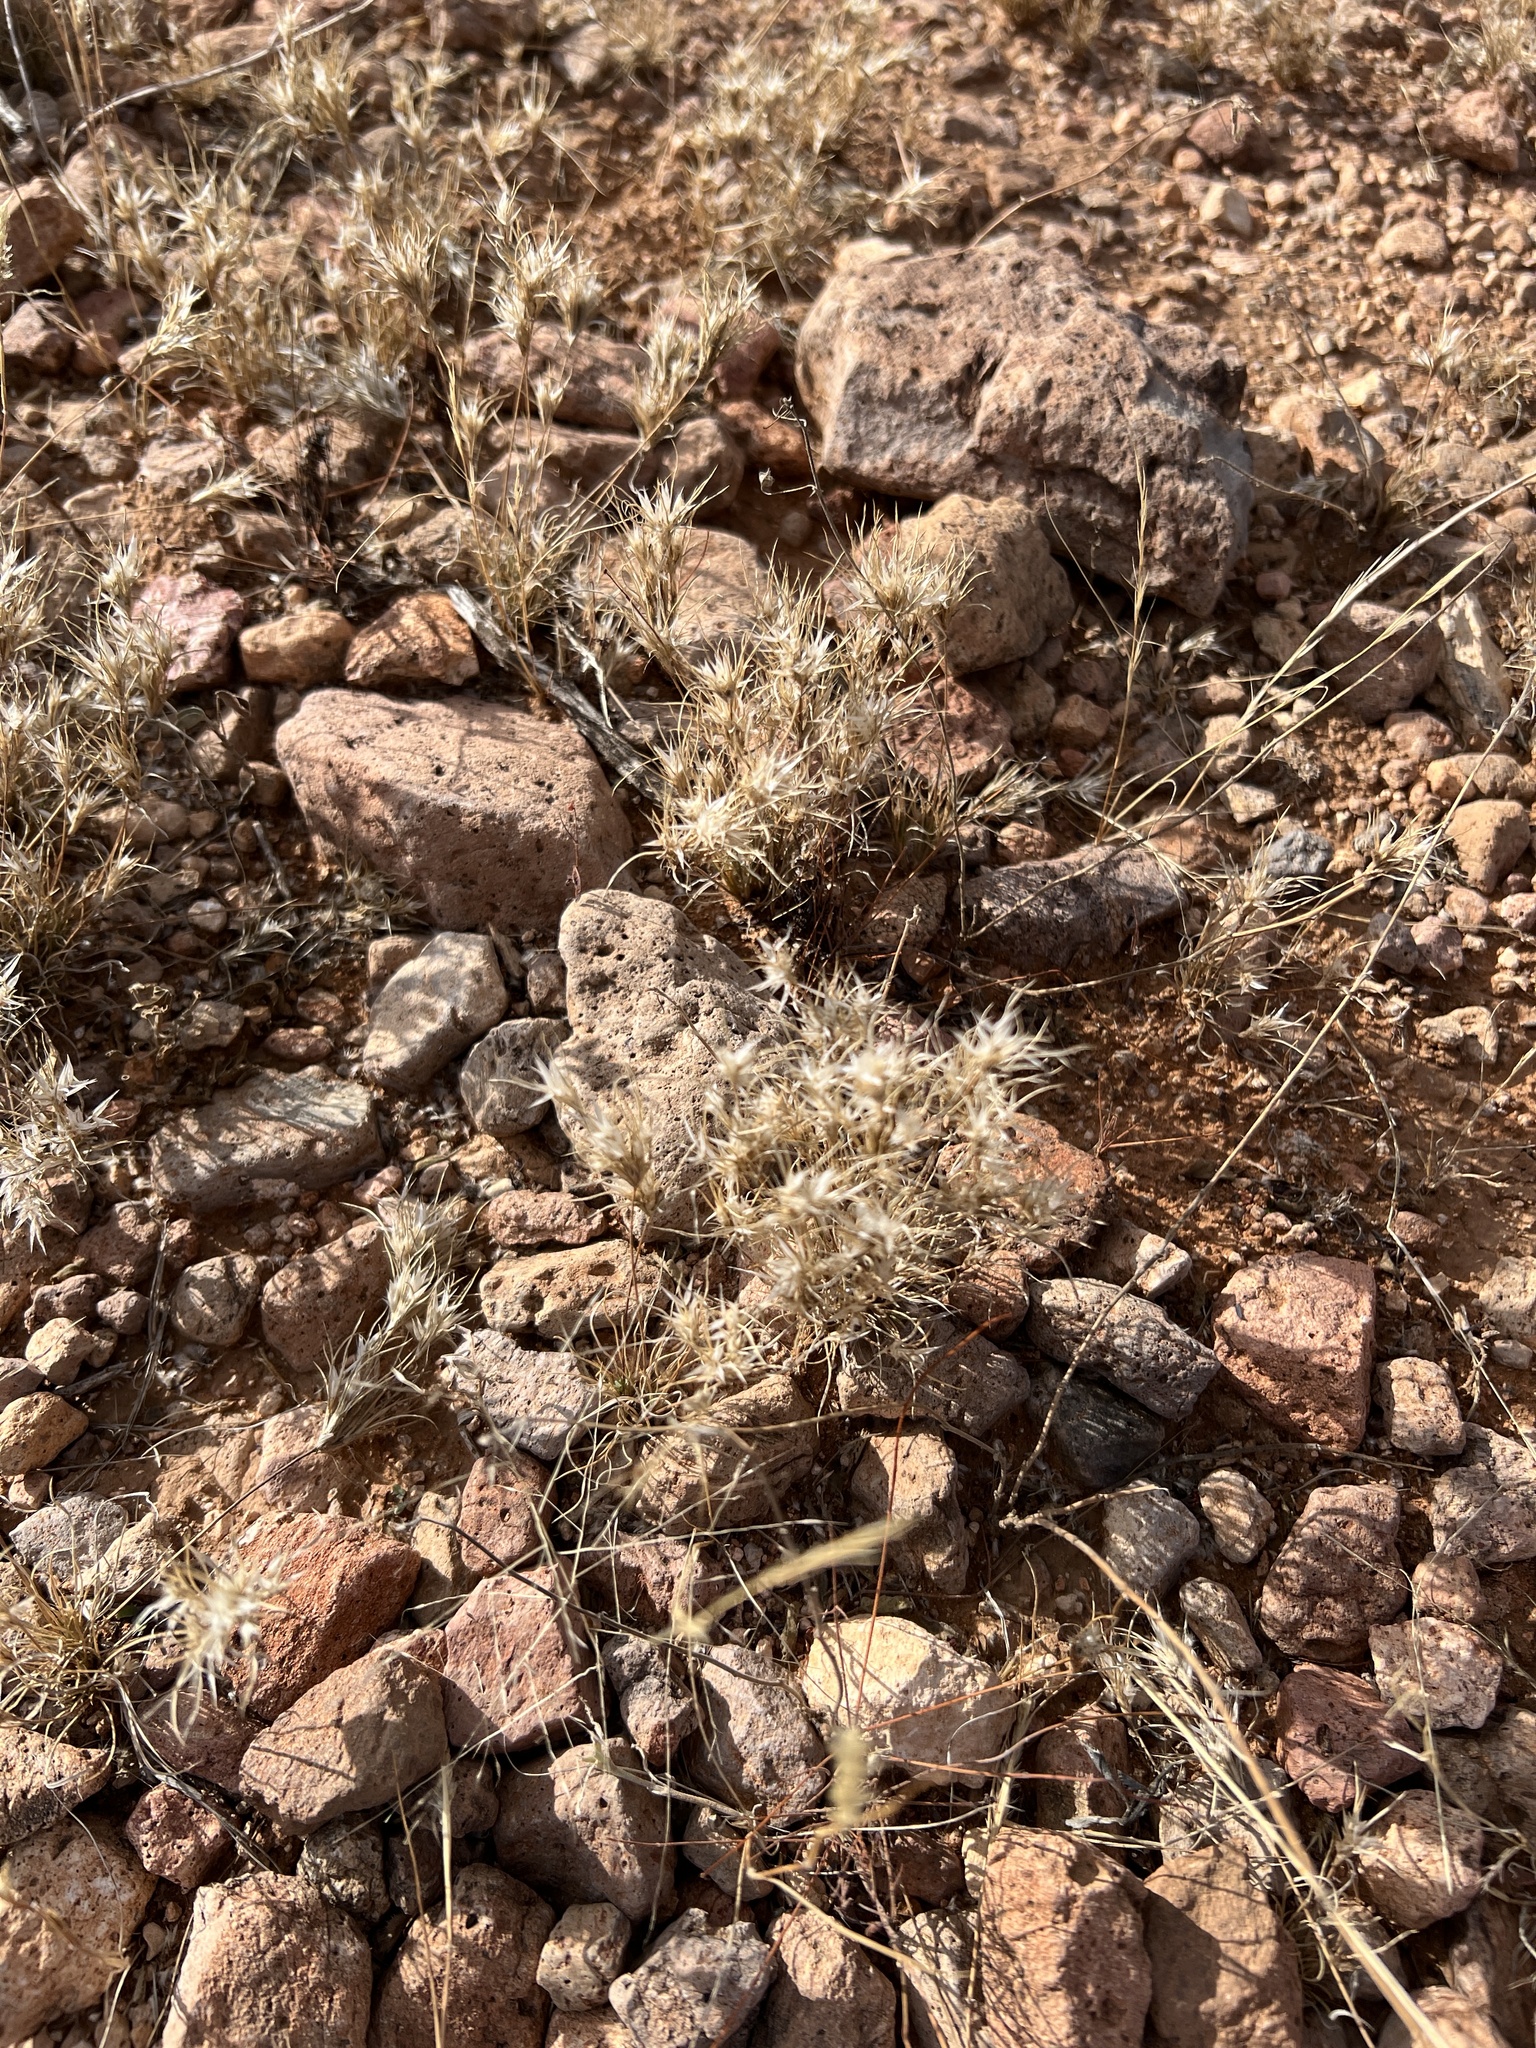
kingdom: Plantae
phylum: Tracheophyta
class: Liliopsida
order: Poales
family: Poaceae
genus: Dasyochloa
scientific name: Dasyochloa pulchella
